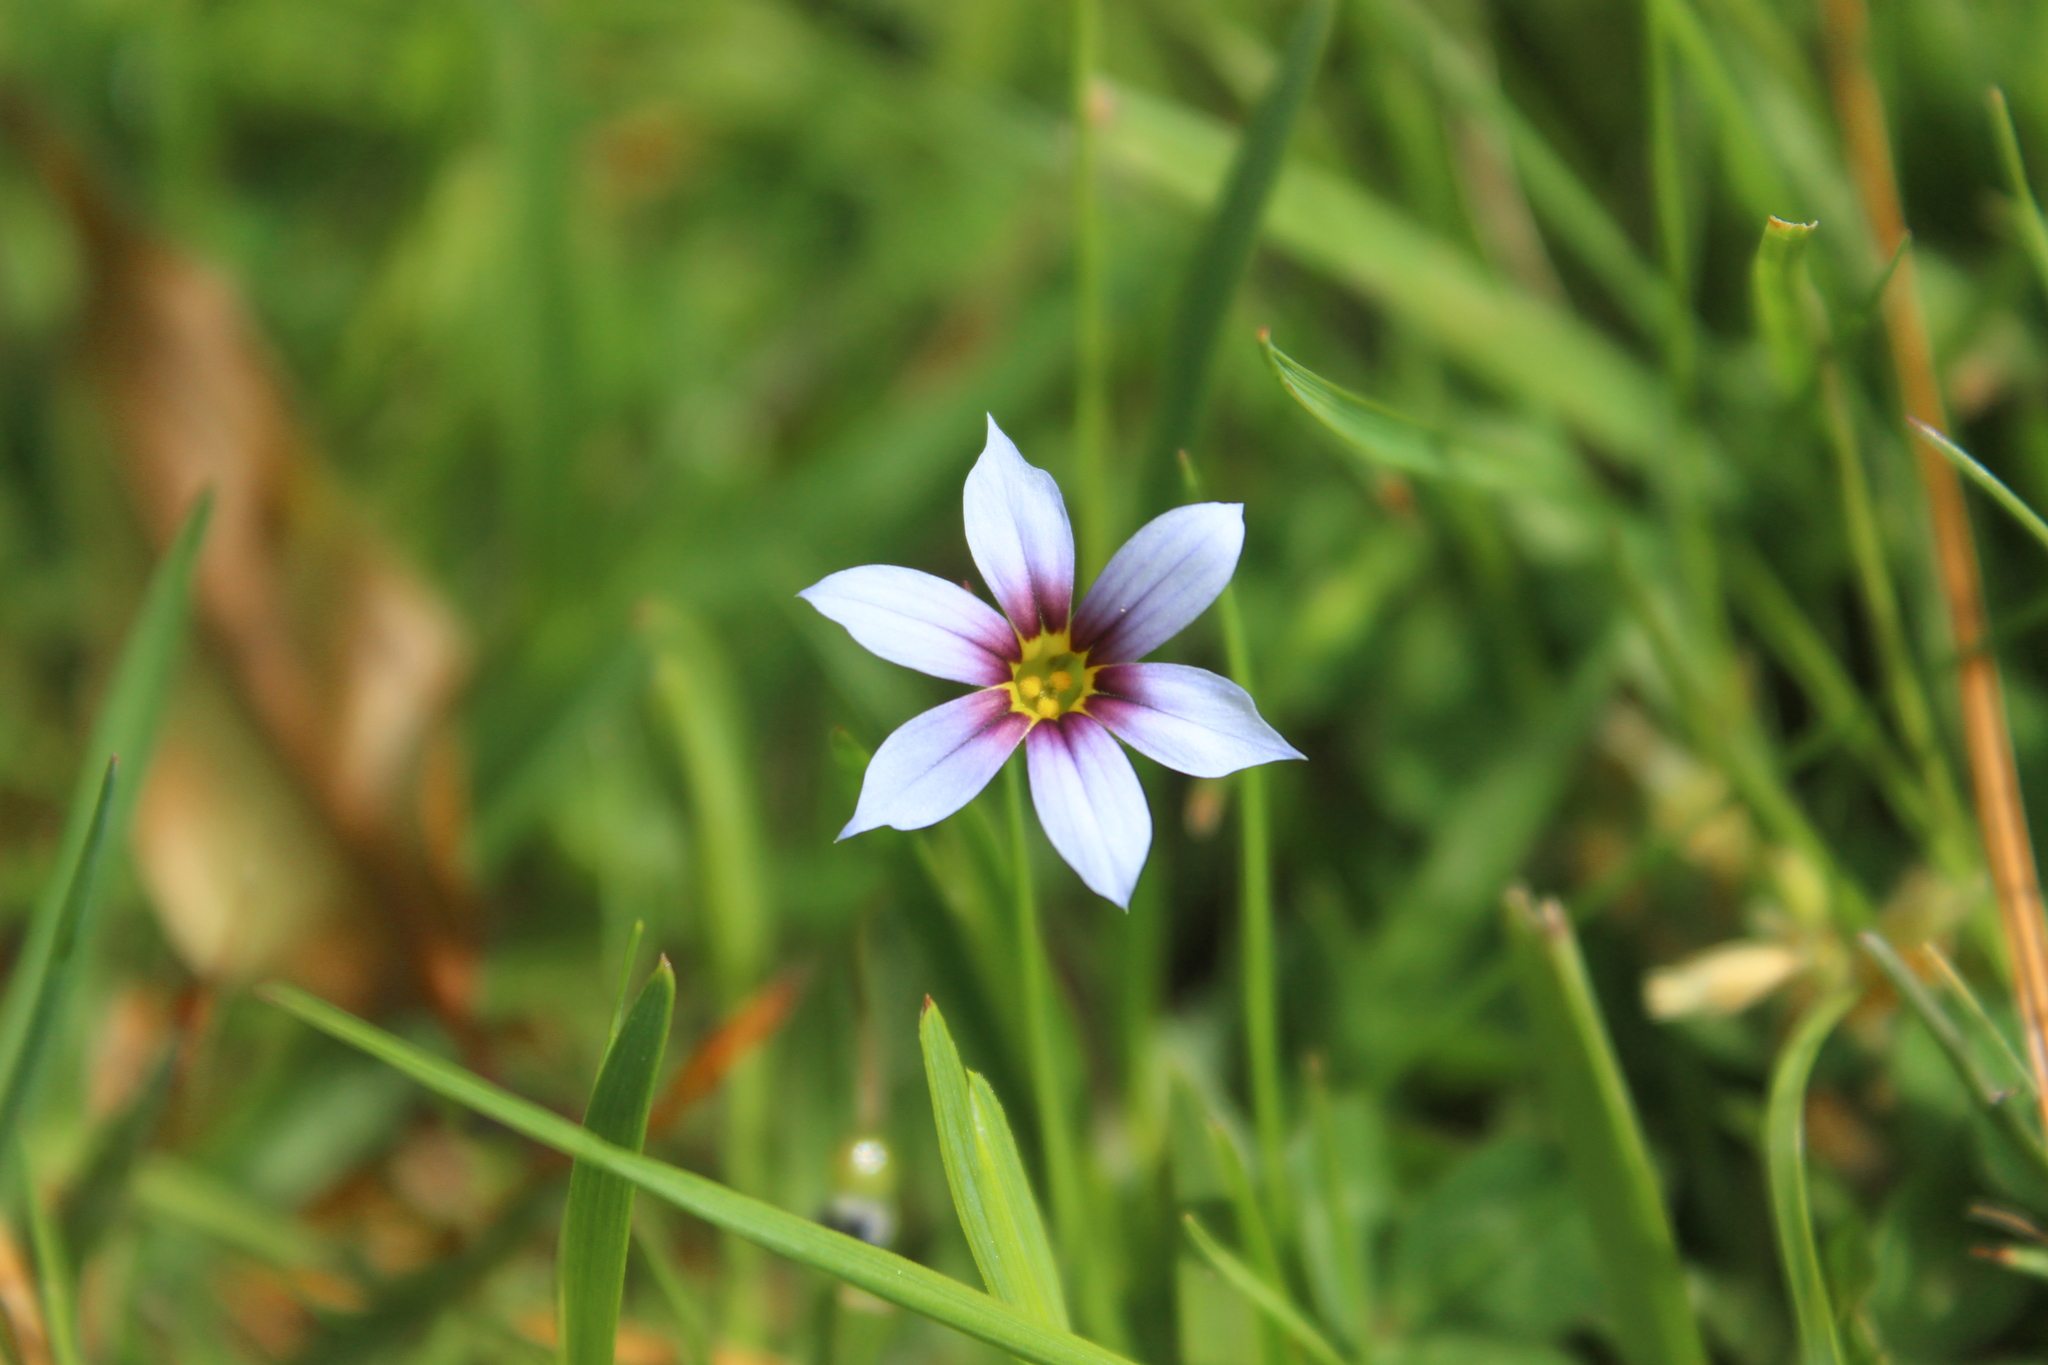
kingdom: Plantae
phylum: Tracheophyta
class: Liliopsida
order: Asparagales
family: Iridaceae
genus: Sisyrinchium
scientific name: Sisyrinchium micranthum
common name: Bermuda pigroot
